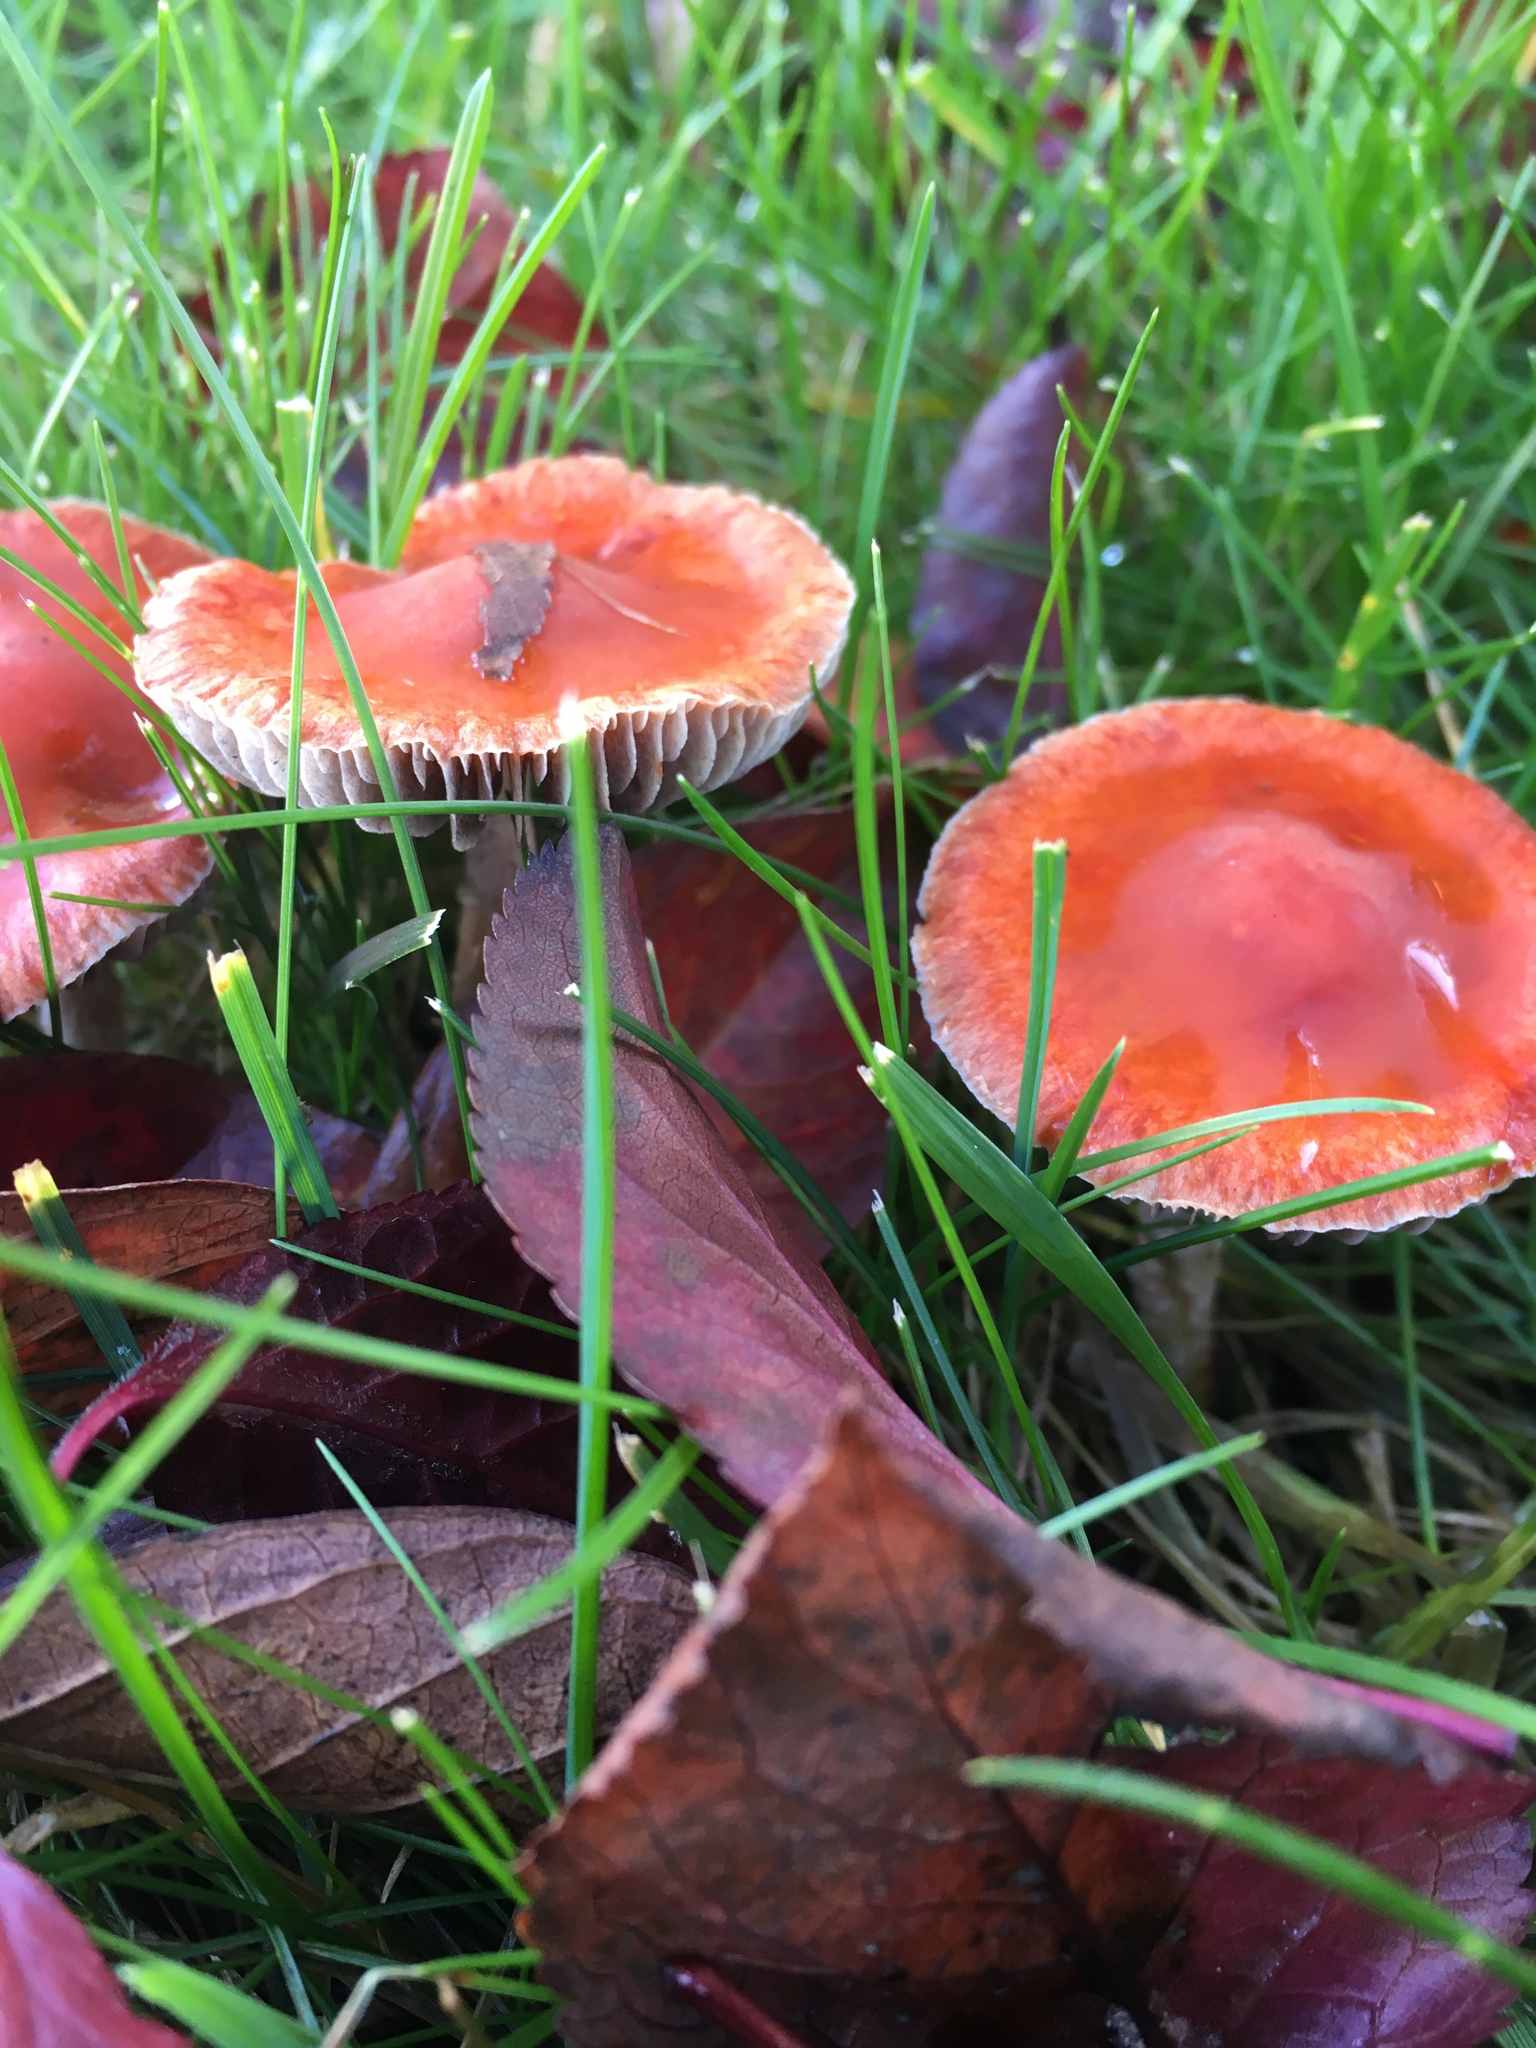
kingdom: Fungi
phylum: Basidiomycota
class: Agaricomycetes
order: Agaricales
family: Strophariaceae
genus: Leratiomyces
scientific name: Leratiomyces ceres
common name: Redlead roundhead
